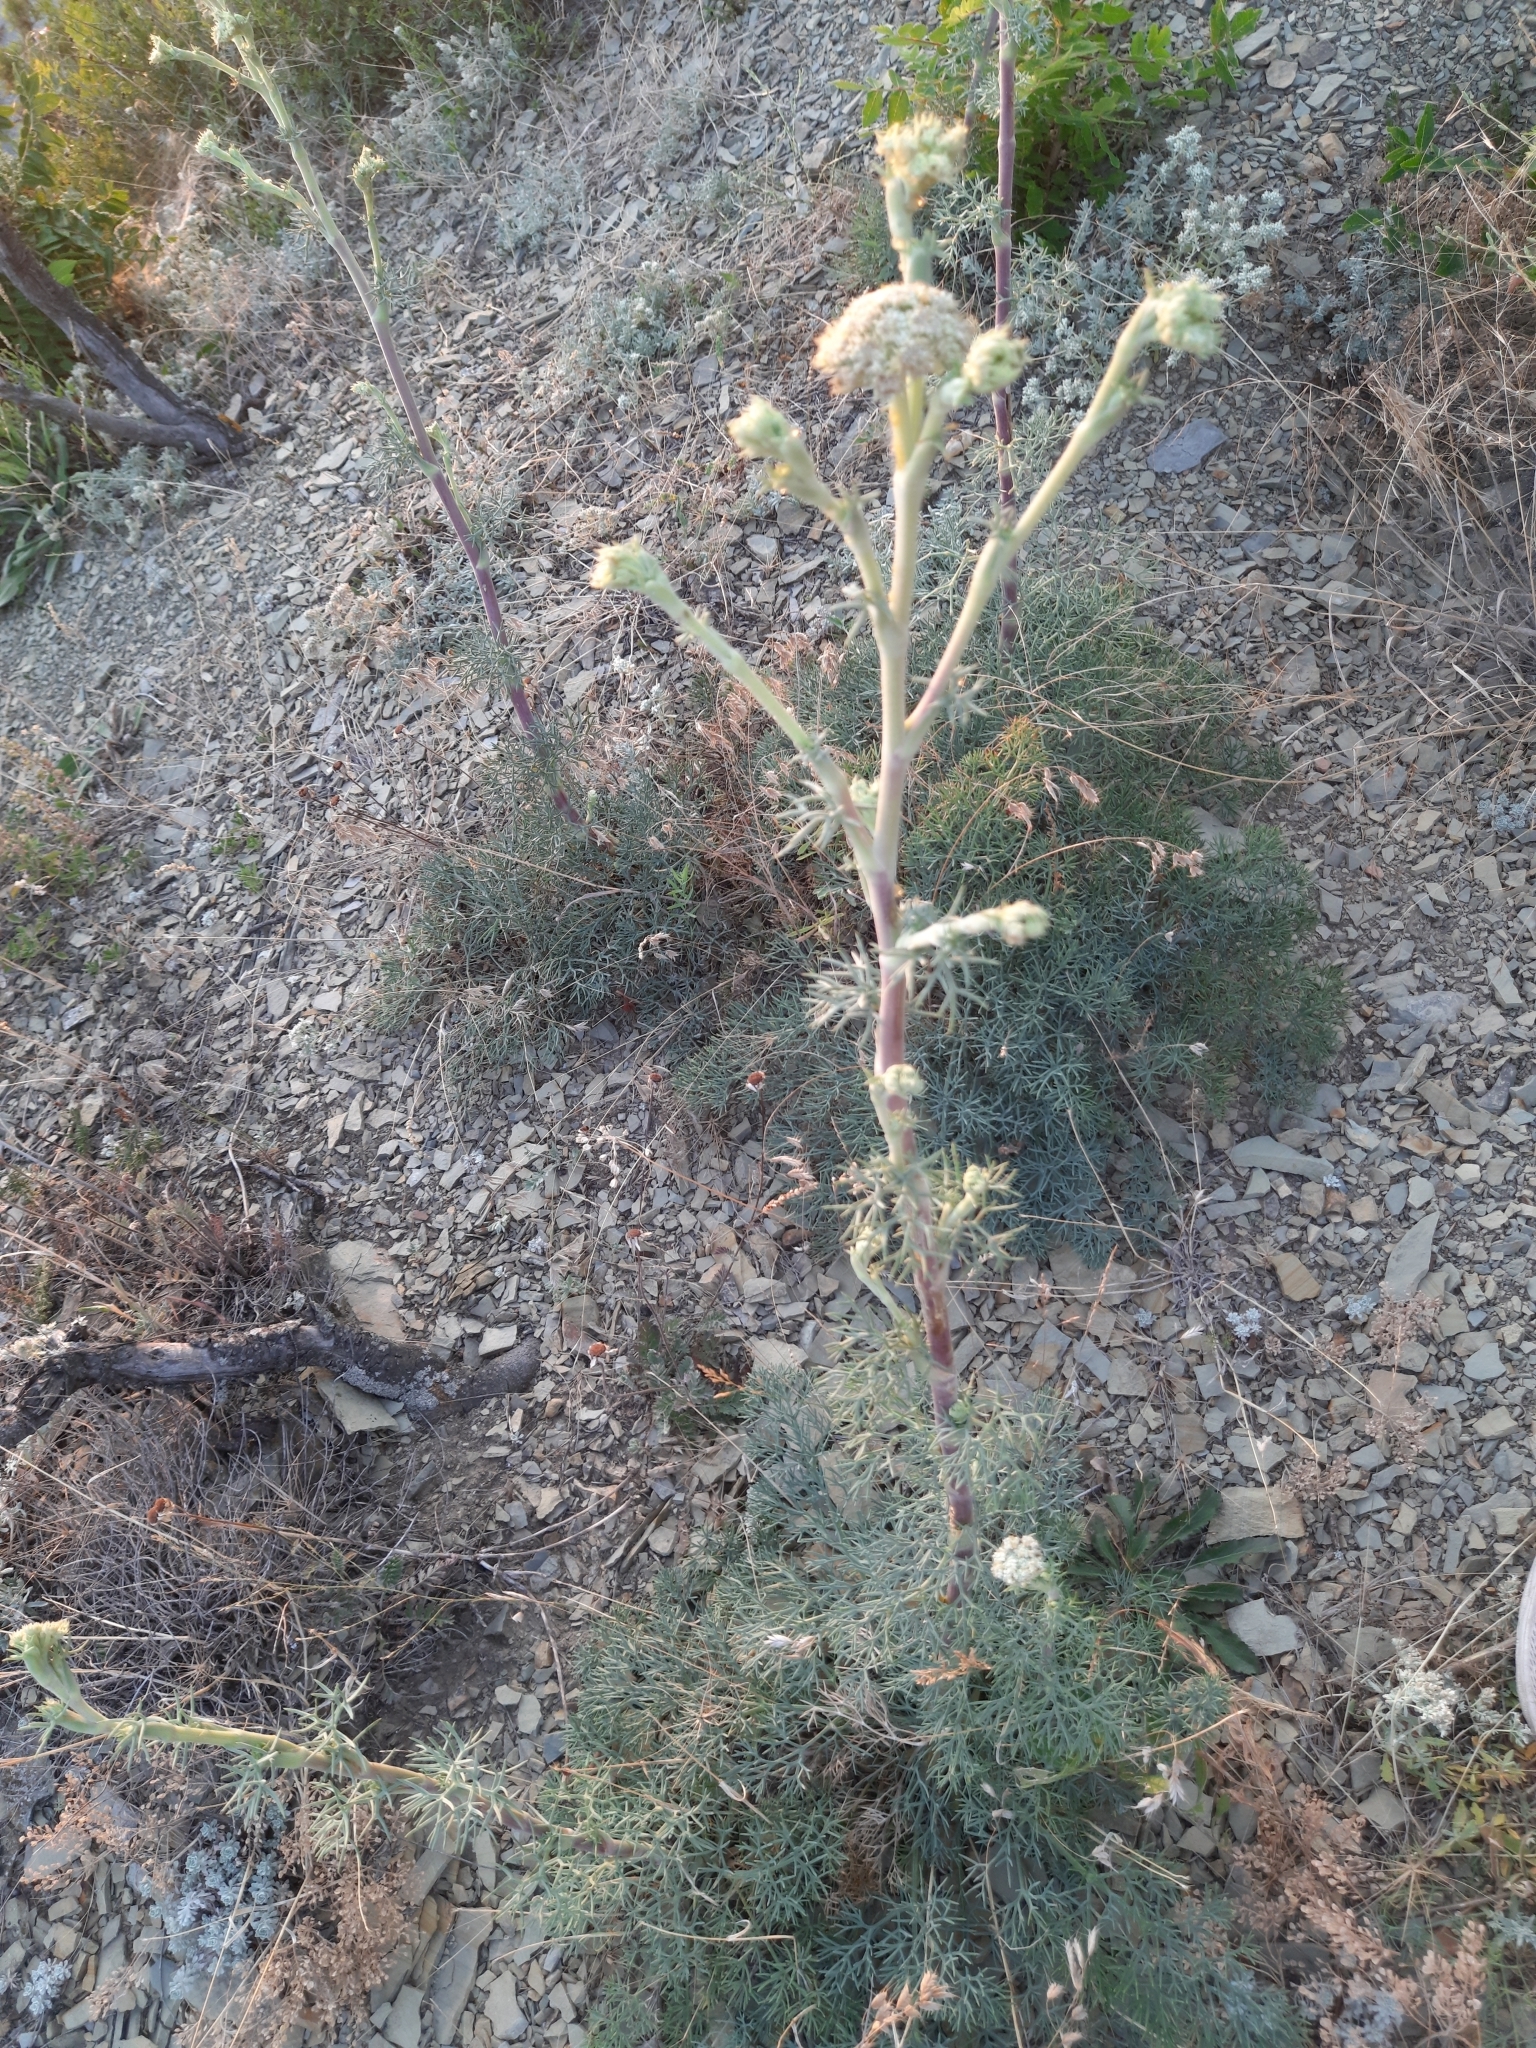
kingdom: Plantae
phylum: Tracheophyta
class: Magnoliopsida
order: Apiales
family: Apiaceae
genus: Seseli
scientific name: Seseli ponticum
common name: Pontic seseli
